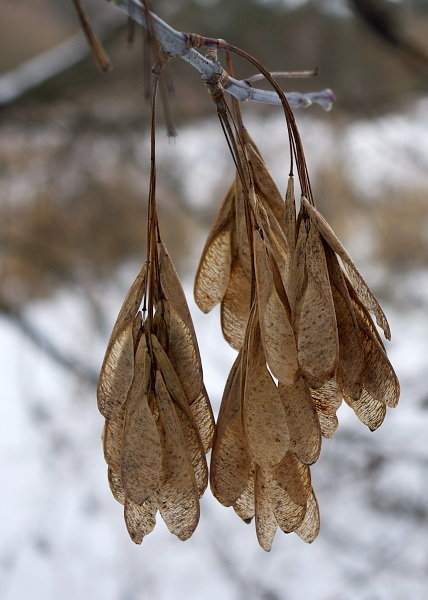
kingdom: Plantae
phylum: Tracheophyta
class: Magnoliopsida
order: Sapindales
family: Sapindaceae
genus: Acer
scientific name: Acer negundo
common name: Ashleaf maple
